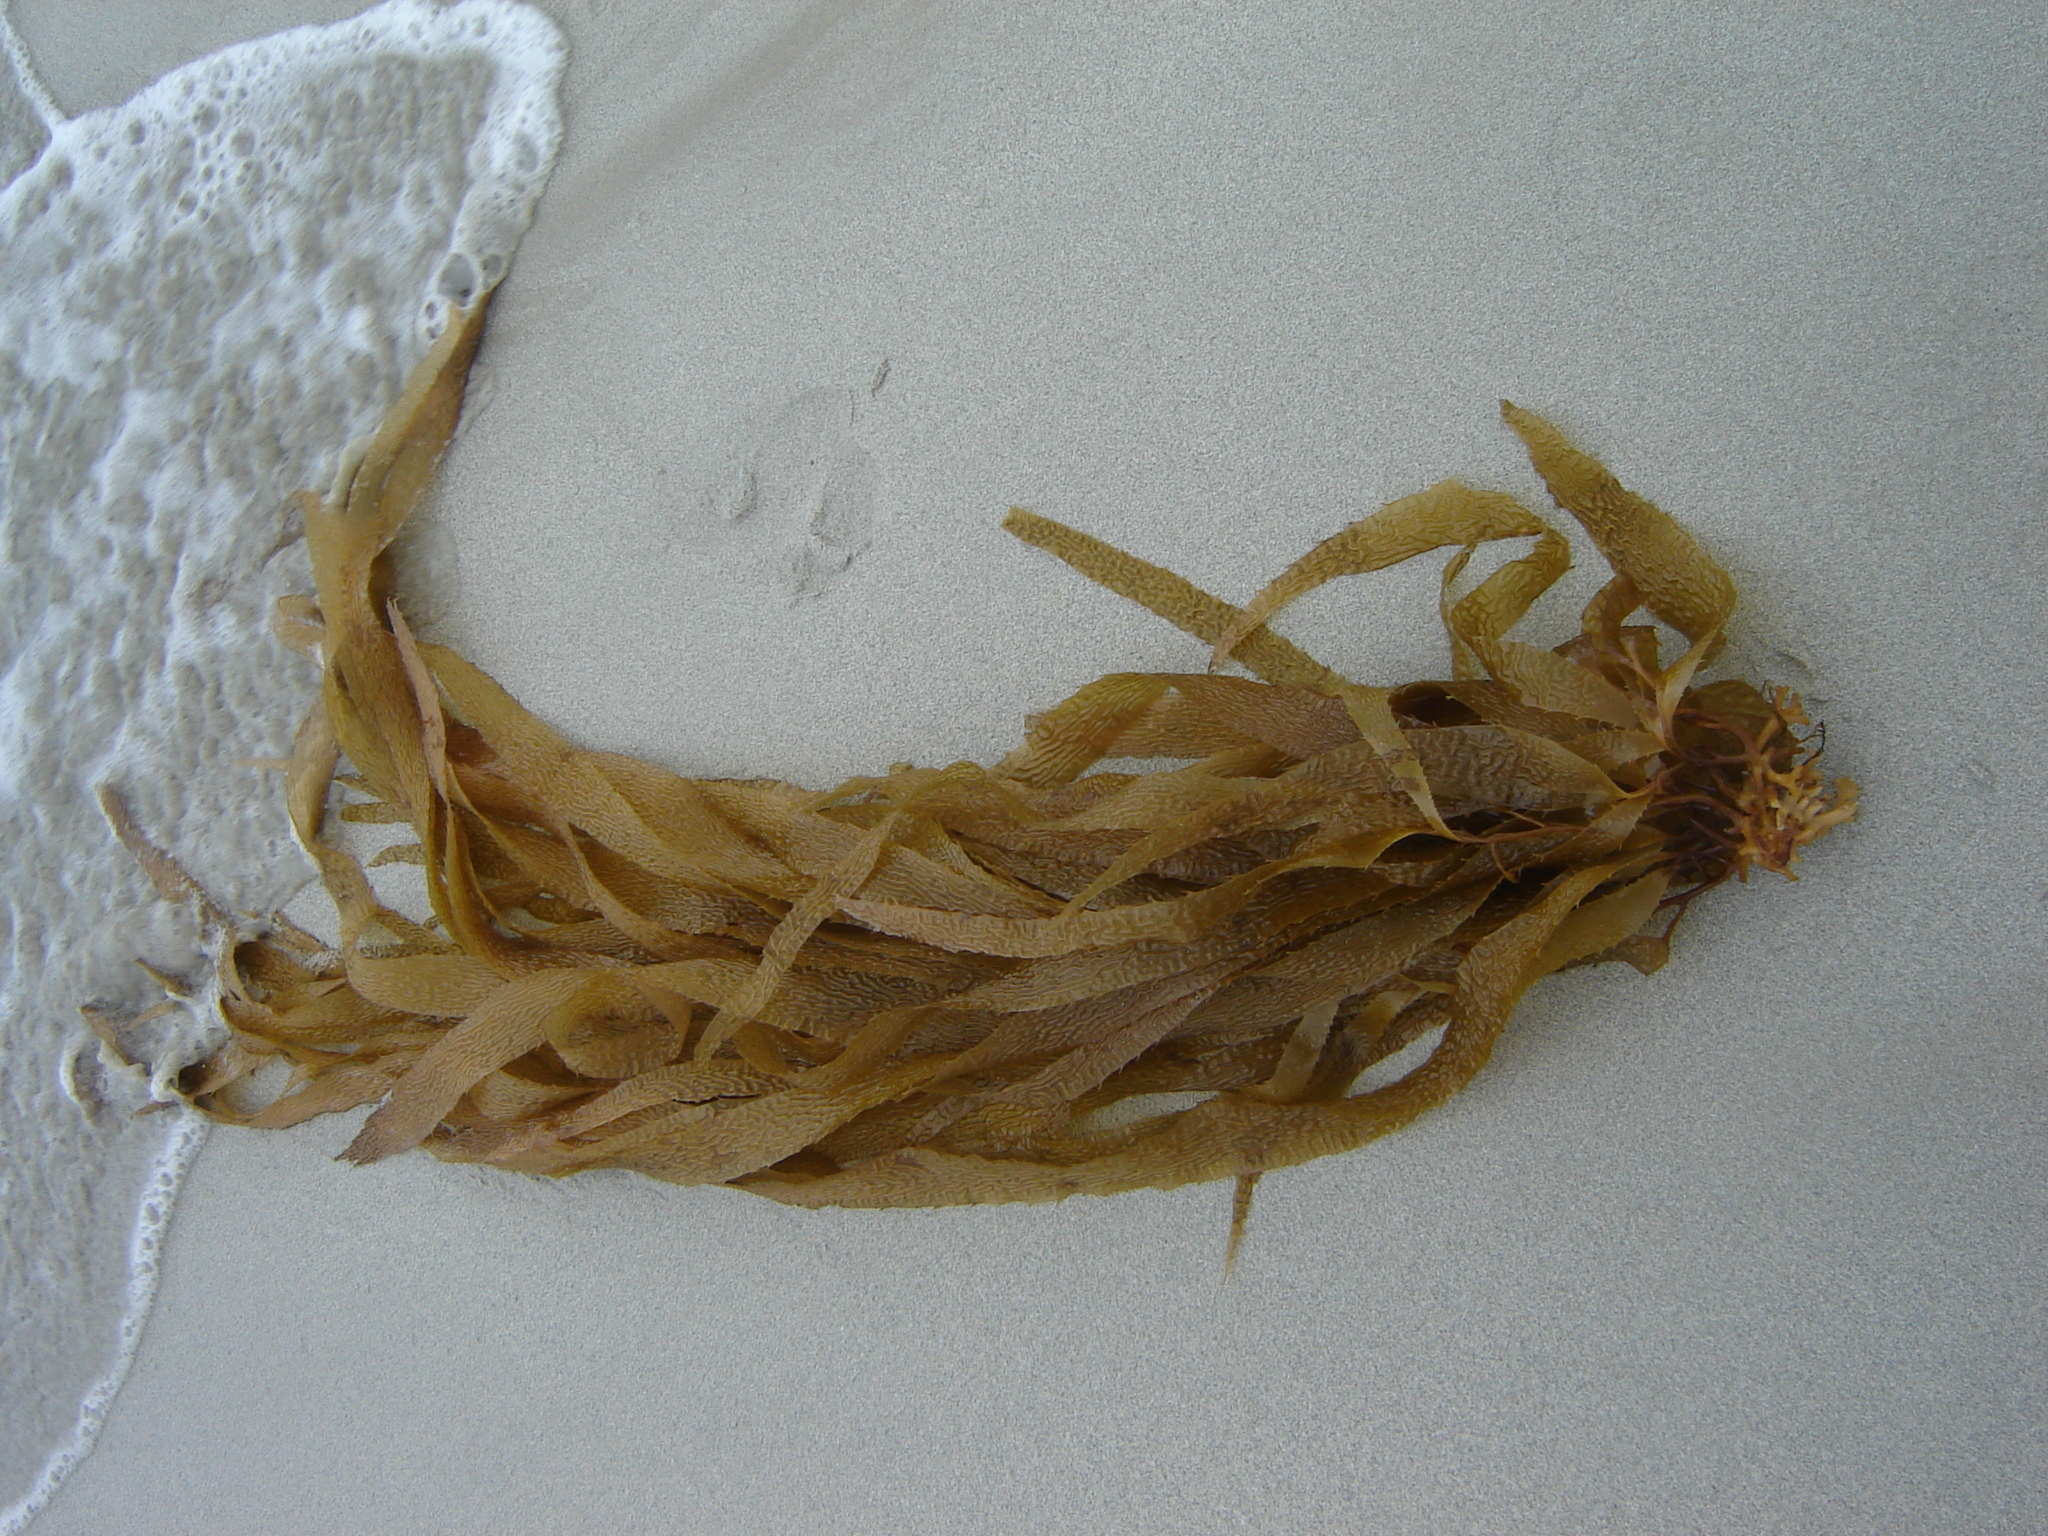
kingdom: Chromista
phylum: Ochrophyta
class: Phaeophyceae
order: Laminariales
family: Laminariaceae
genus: Macrocystis
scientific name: Macrocystis pyrifera
